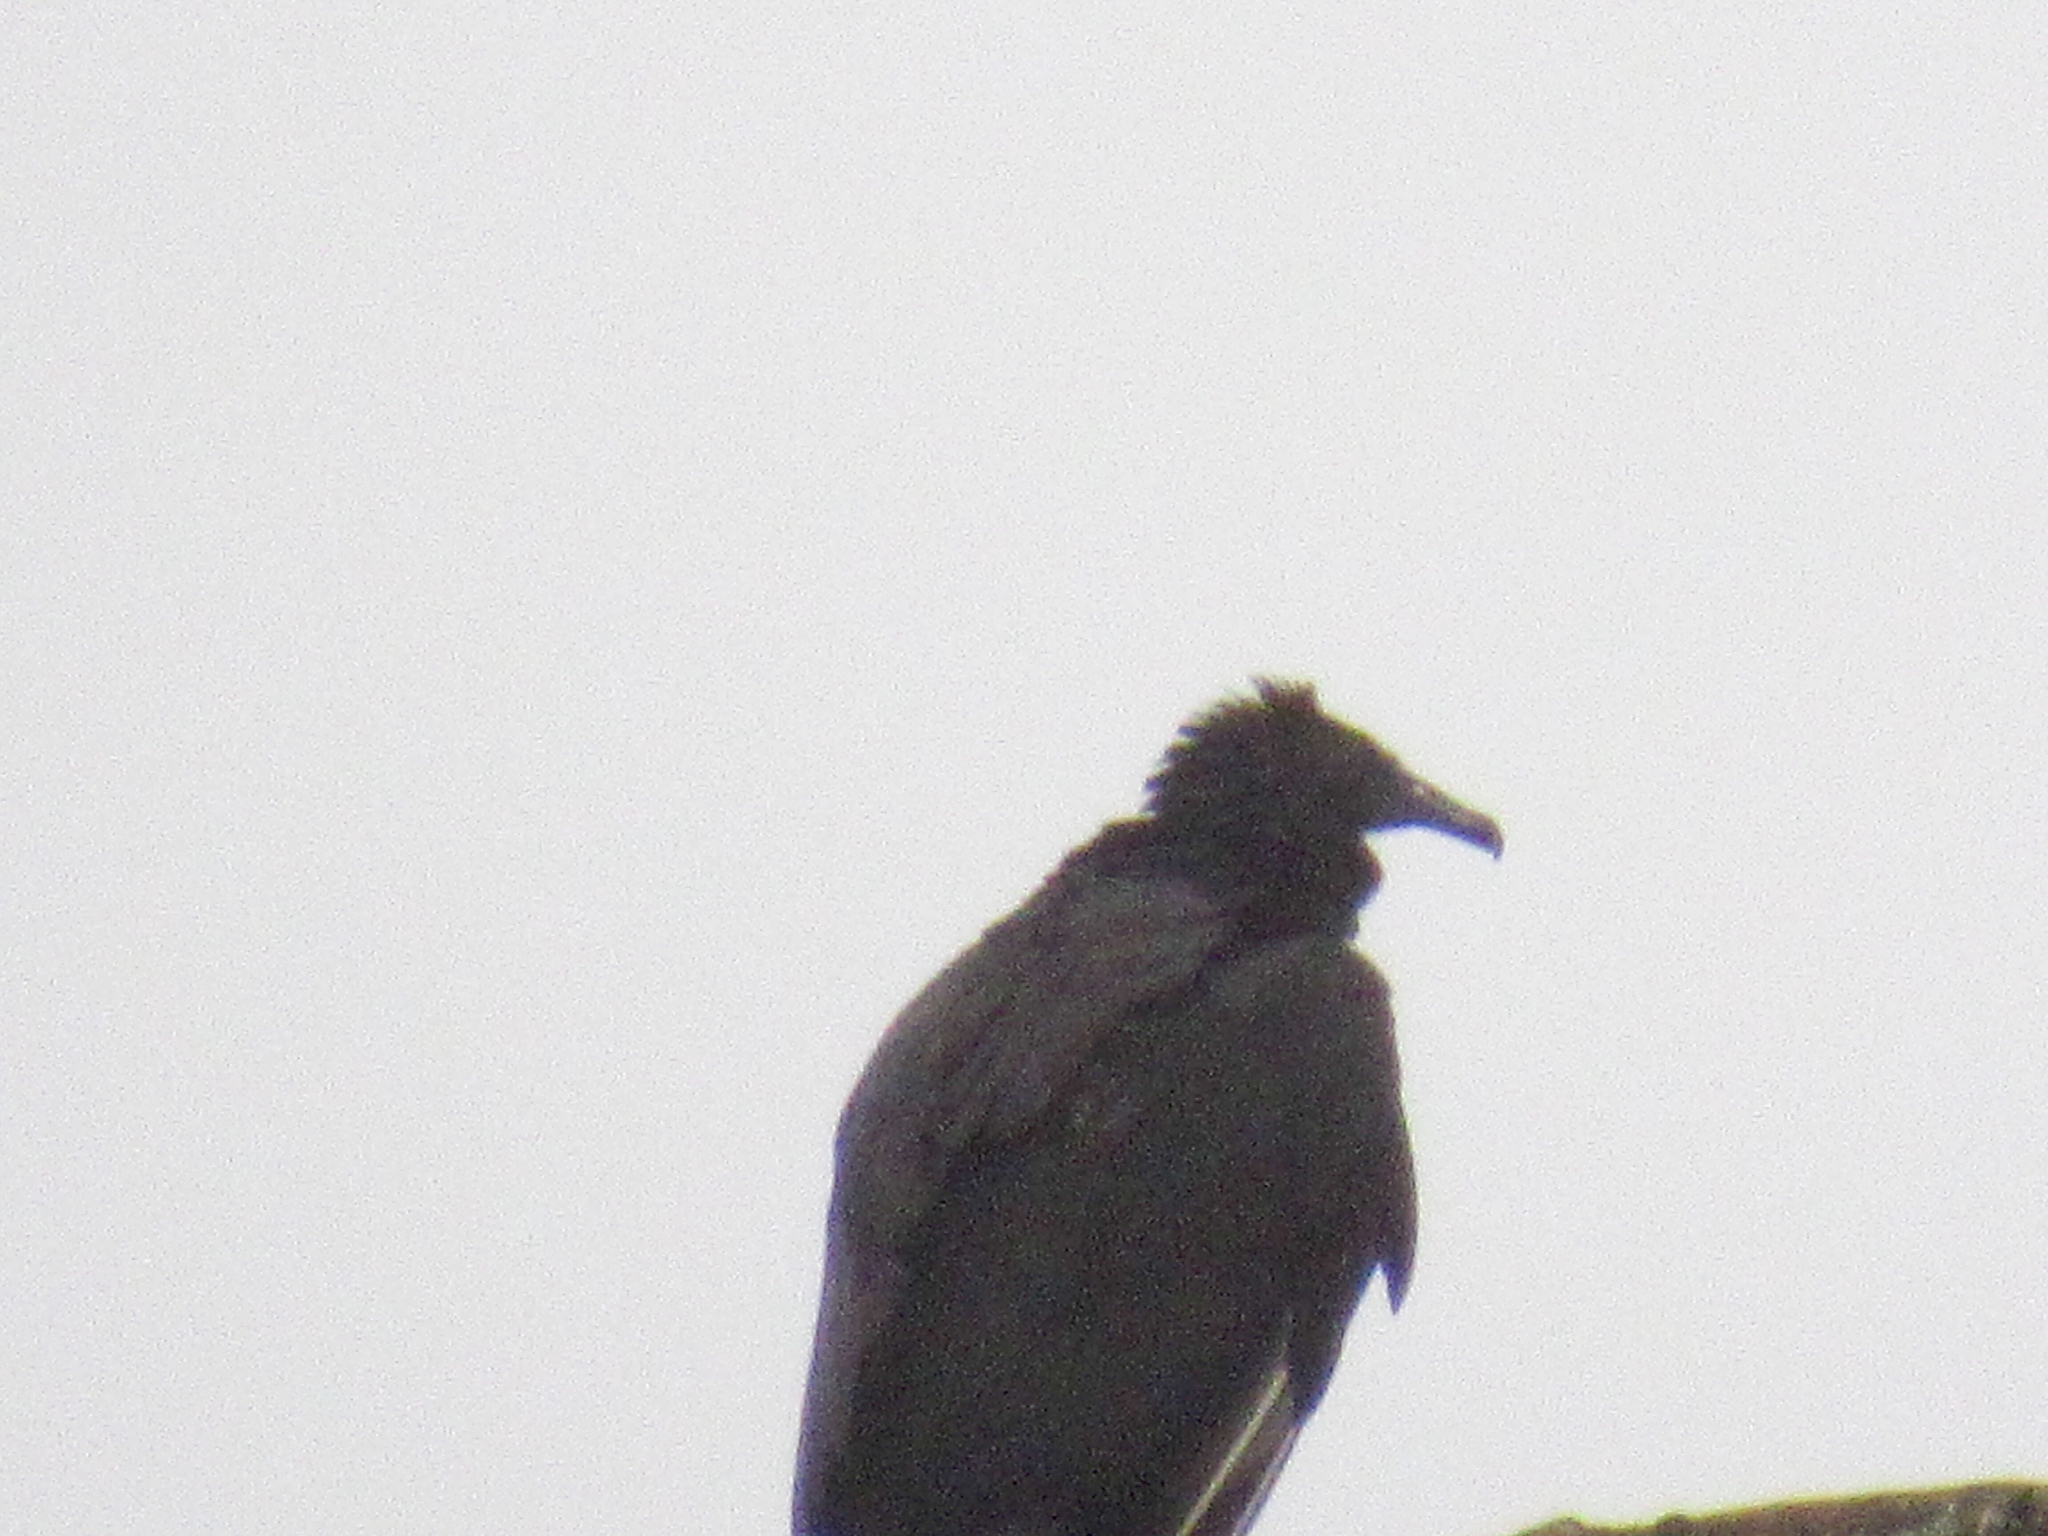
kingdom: Animalia
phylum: Chordata
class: Aves
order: Accipitriformes
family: Cathartidae
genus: Coragyps
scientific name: Coragyps atratus
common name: Black vulture
